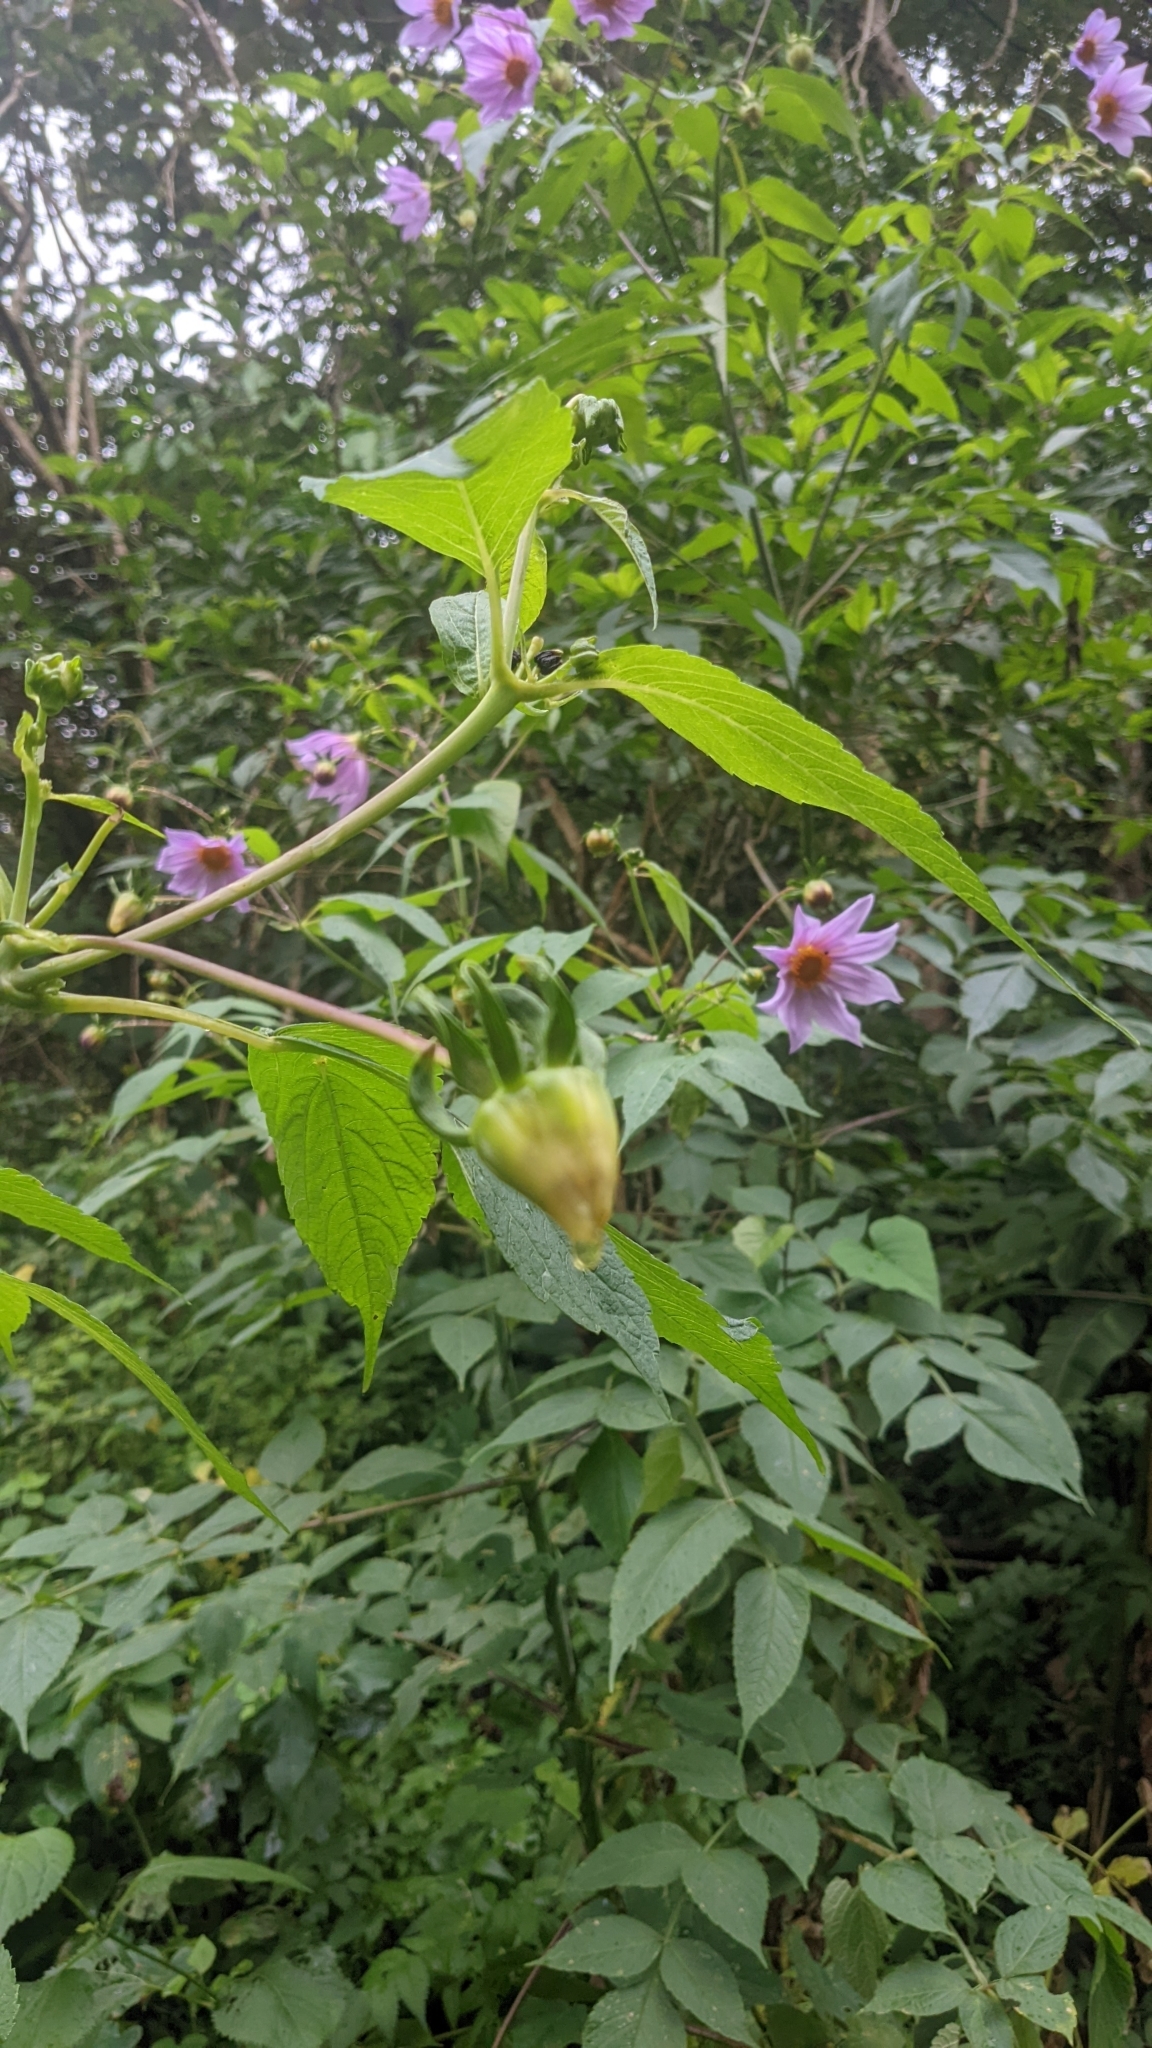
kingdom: Plantae
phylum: Tracheophyta
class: Magnoliopsida
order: Asterales
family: Asteraceae
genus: Dahlia
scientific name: Dahlia imperialis
